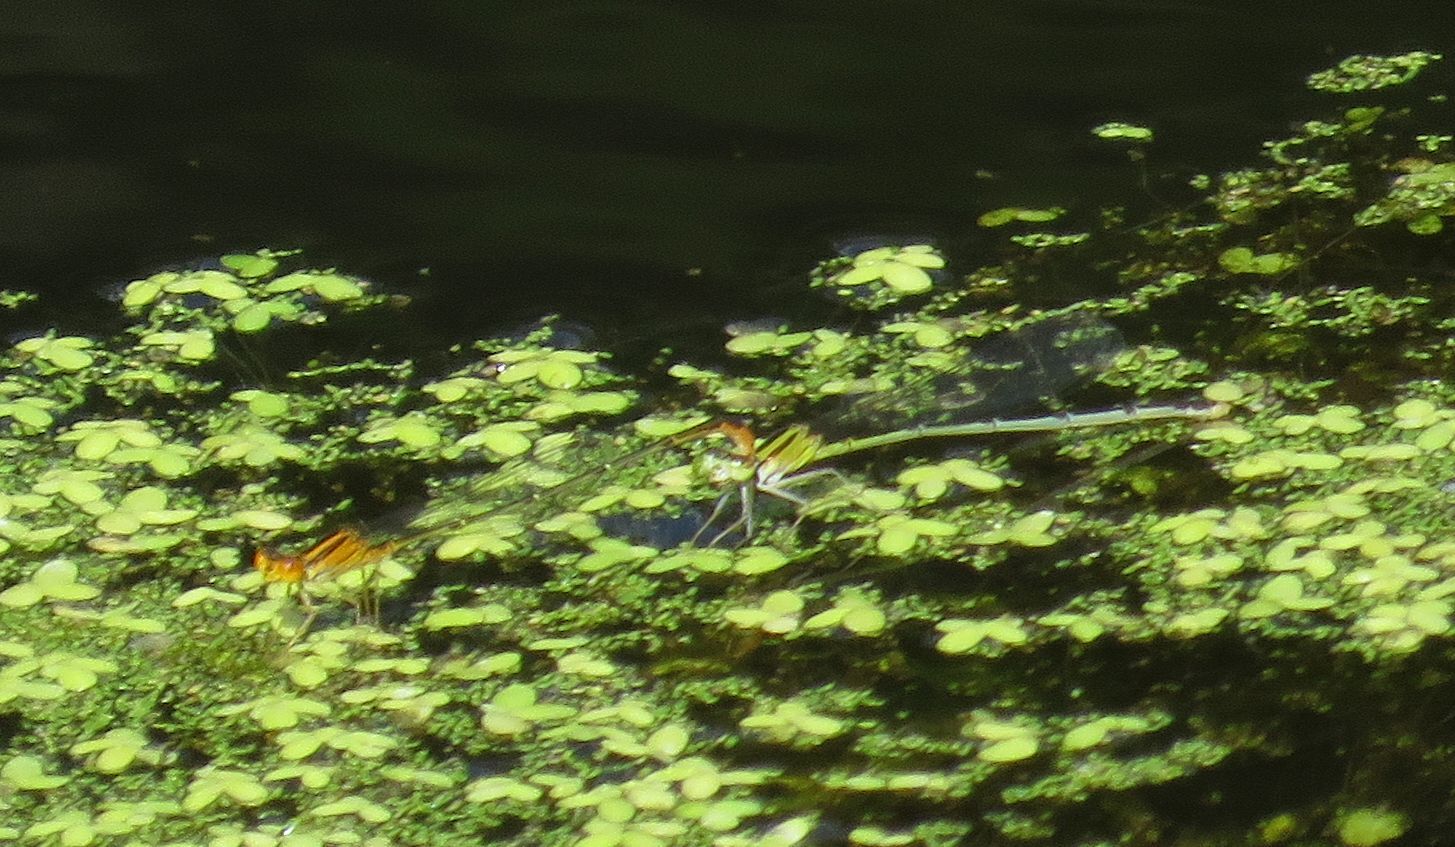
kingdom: Animalia
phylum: Arthropoda
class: Insecta
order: Odonata
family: Coenagrionidae
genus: Enallagma
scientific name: Enallagma signatum
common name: Orange bluet
